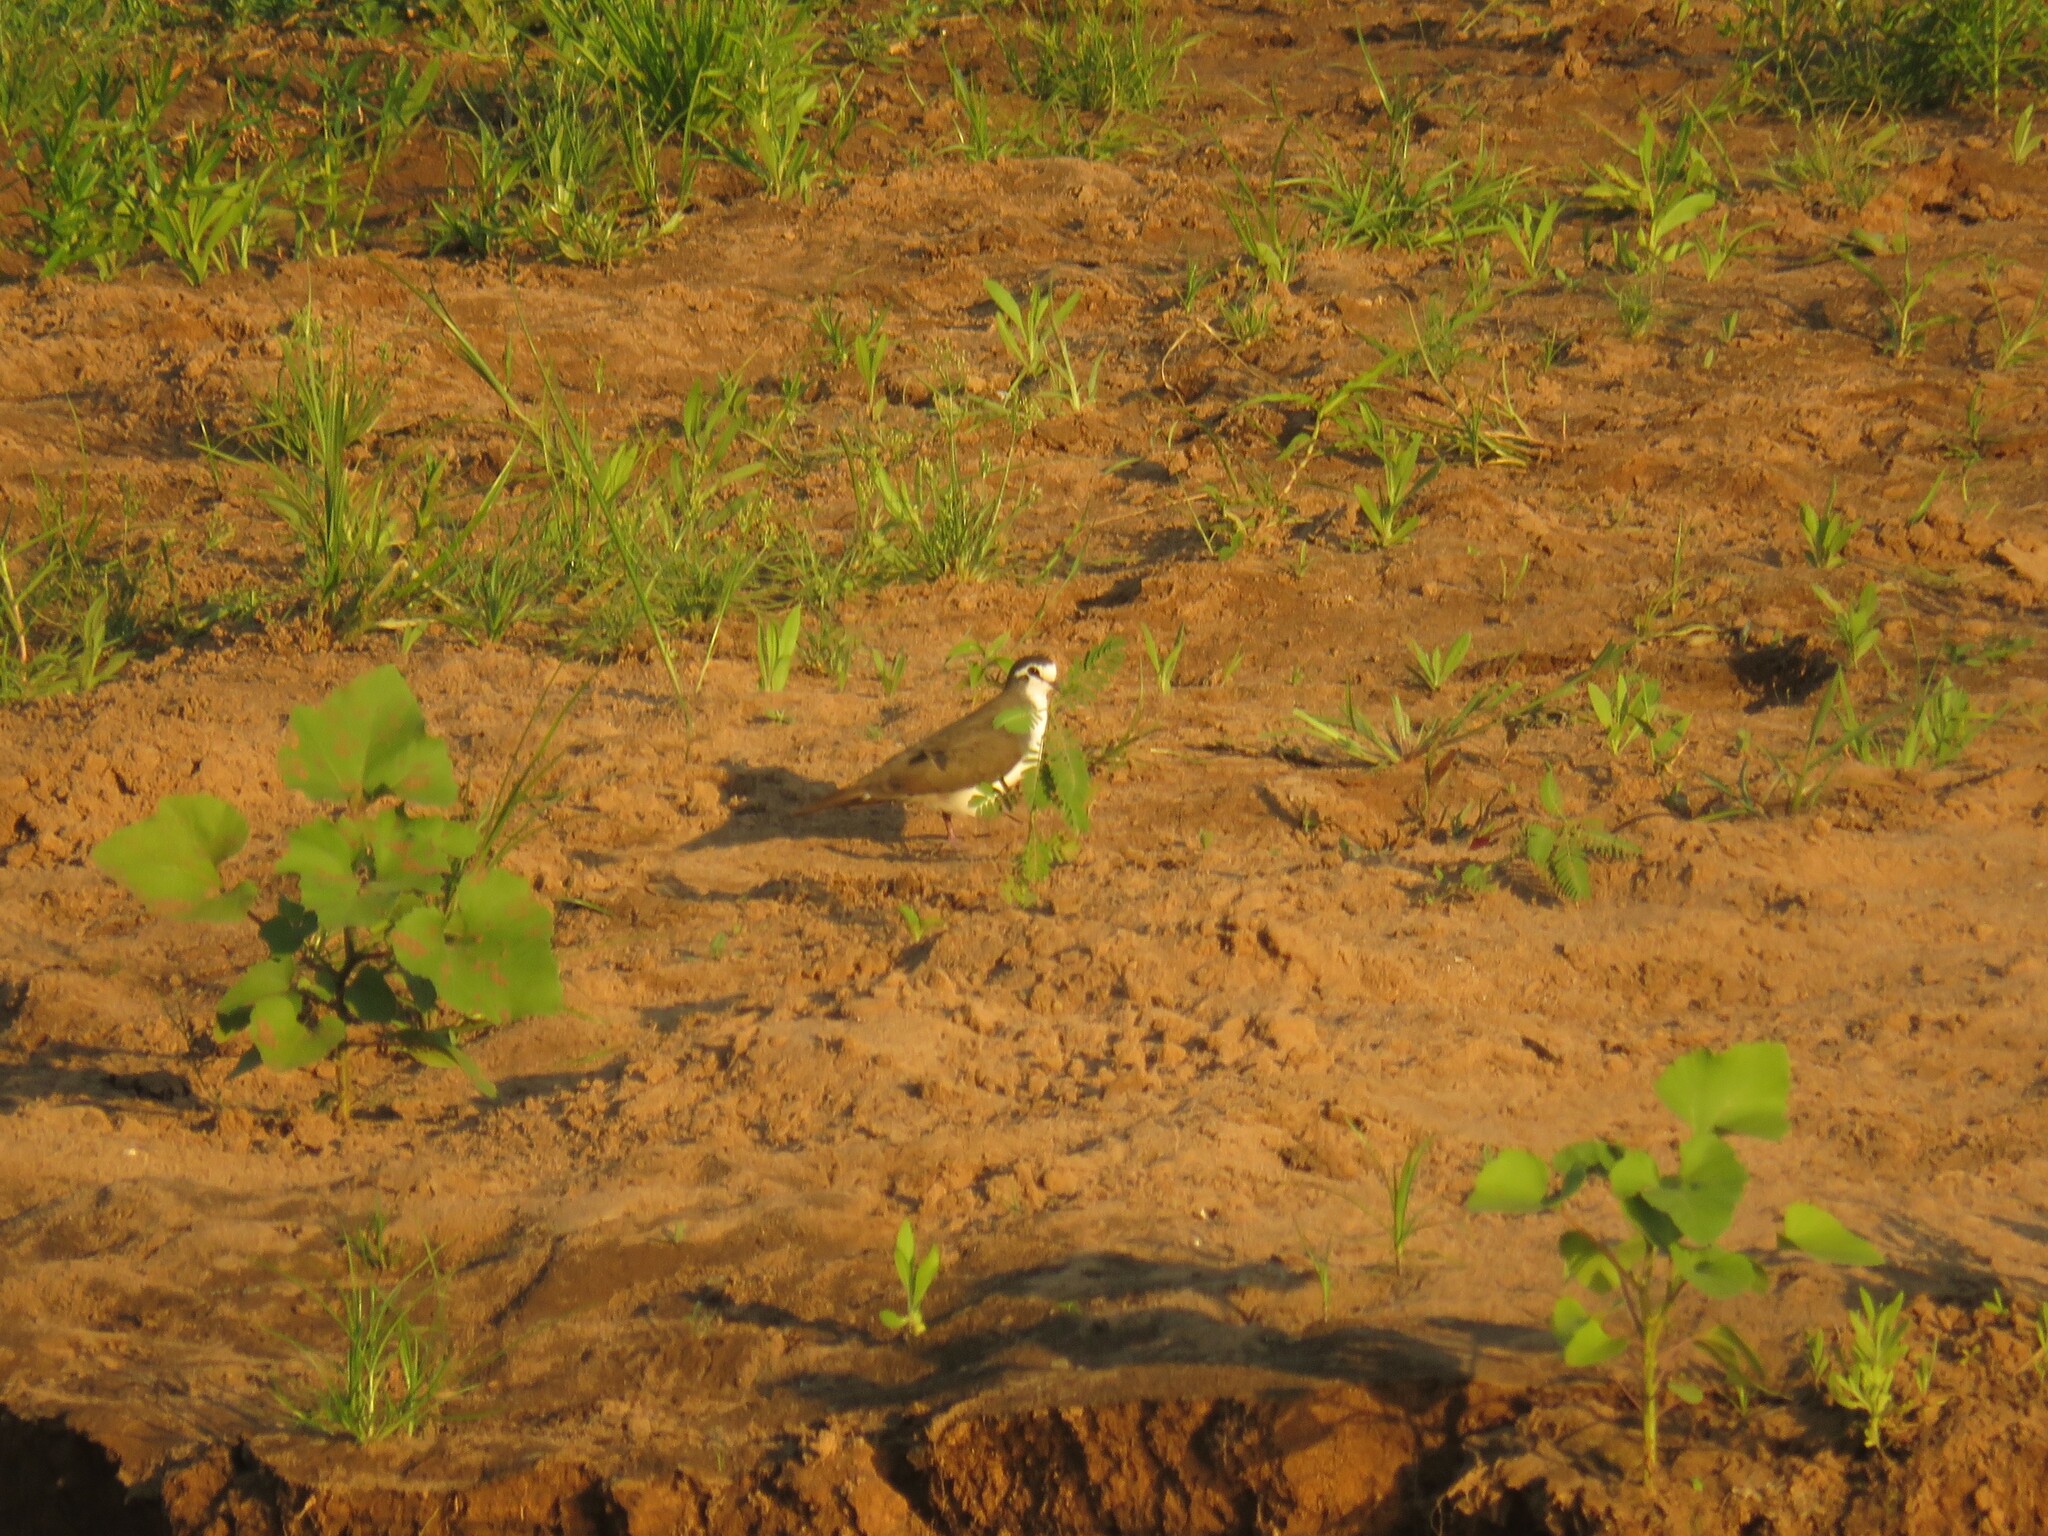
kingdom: Animalia
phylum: Chordata
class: Aves
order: Columbiformes
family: Columbidae
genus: Turtur
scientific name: Turtur tympanistria
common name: Tambourine dove
